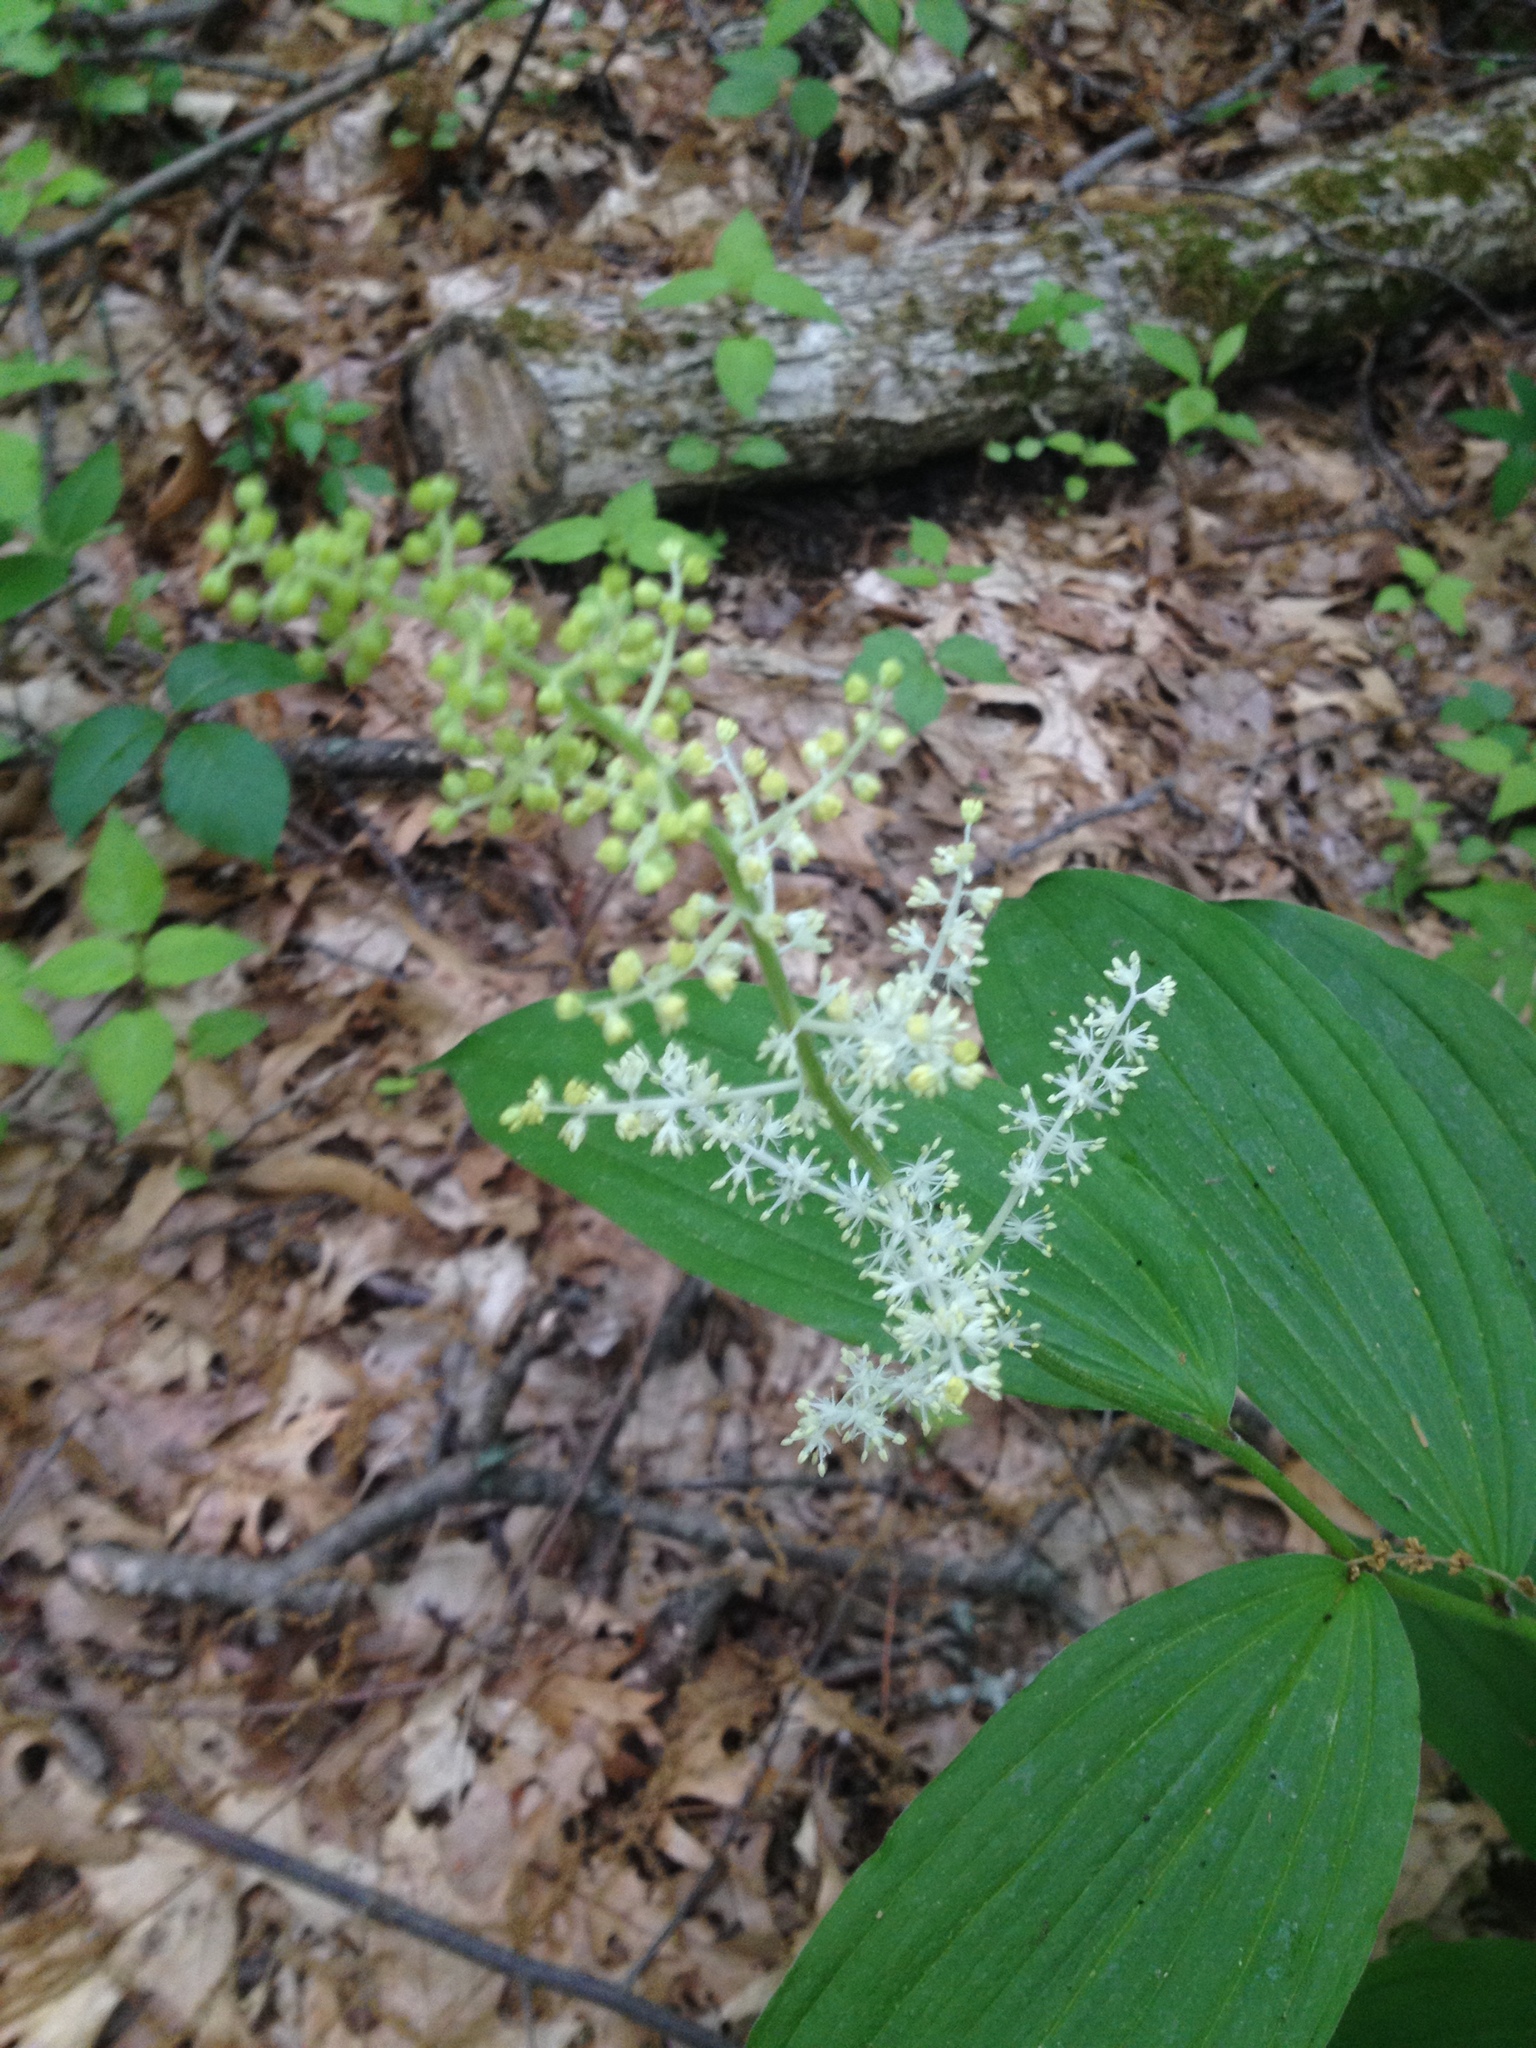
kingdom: Plantae
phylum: Tracheophyta
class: Liliopsida
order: Asparagales
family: Asparagaceae
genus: Maianthemum
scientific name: Maianthemum racemosum
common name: False spikenard
